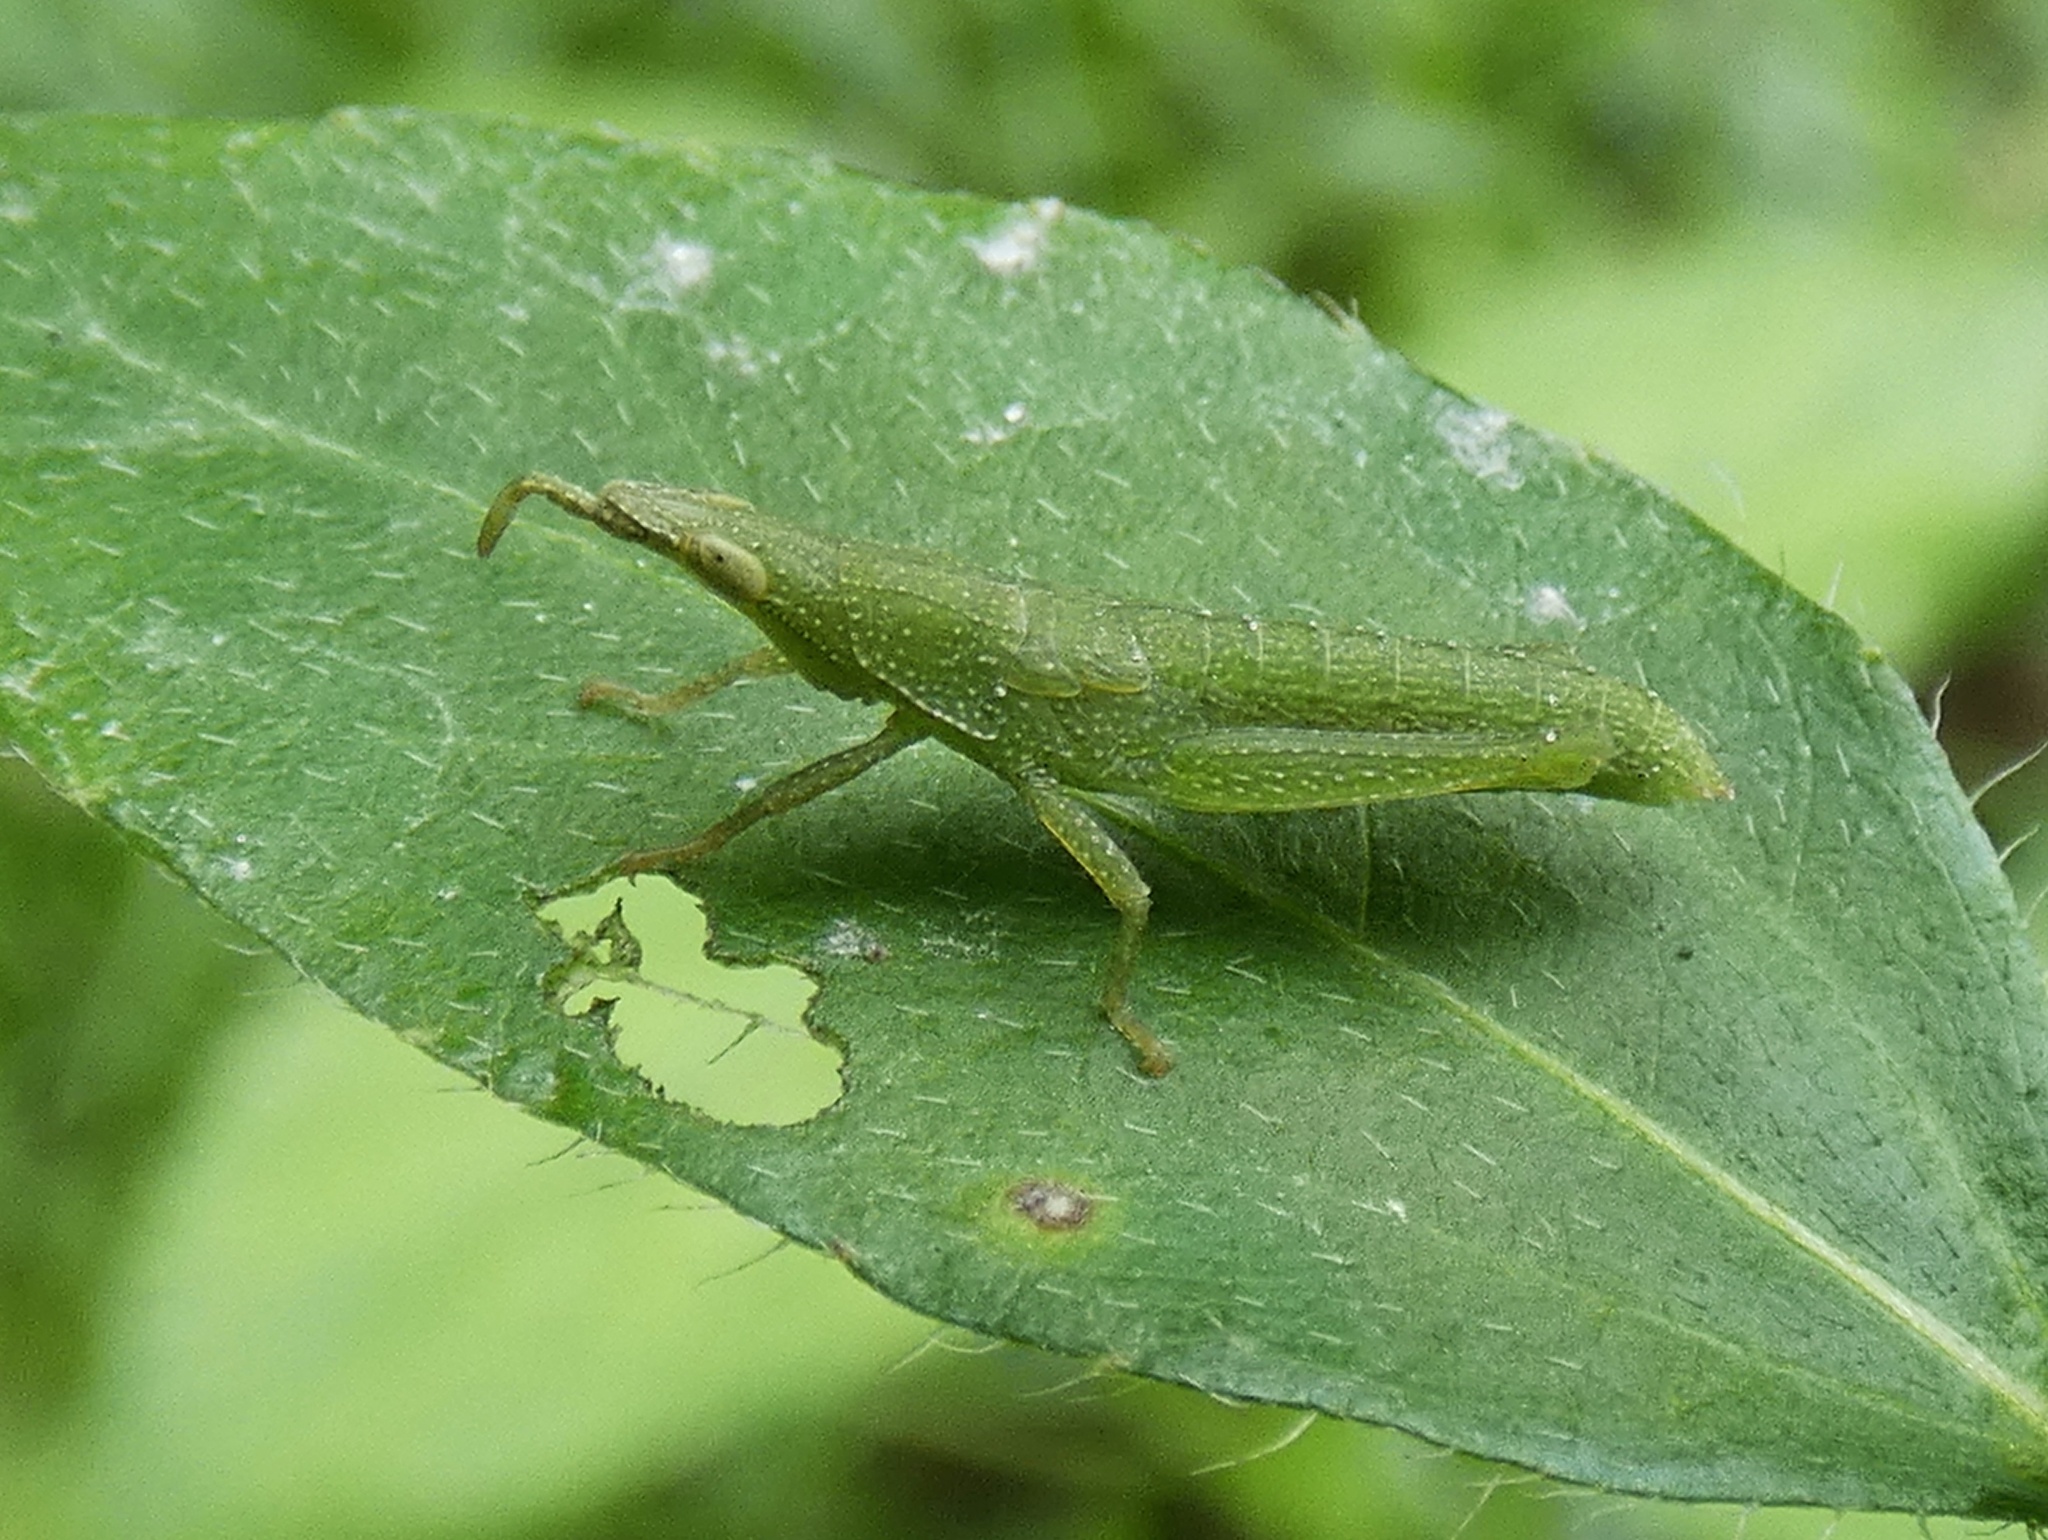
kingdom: Animalia
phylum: Arthropoda
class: Insecta
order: Orthoptera
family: Pyrgomorphidae
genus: Atractomorpha
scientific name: Atractomorpha similis
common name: Northern grass pyrgomorph
